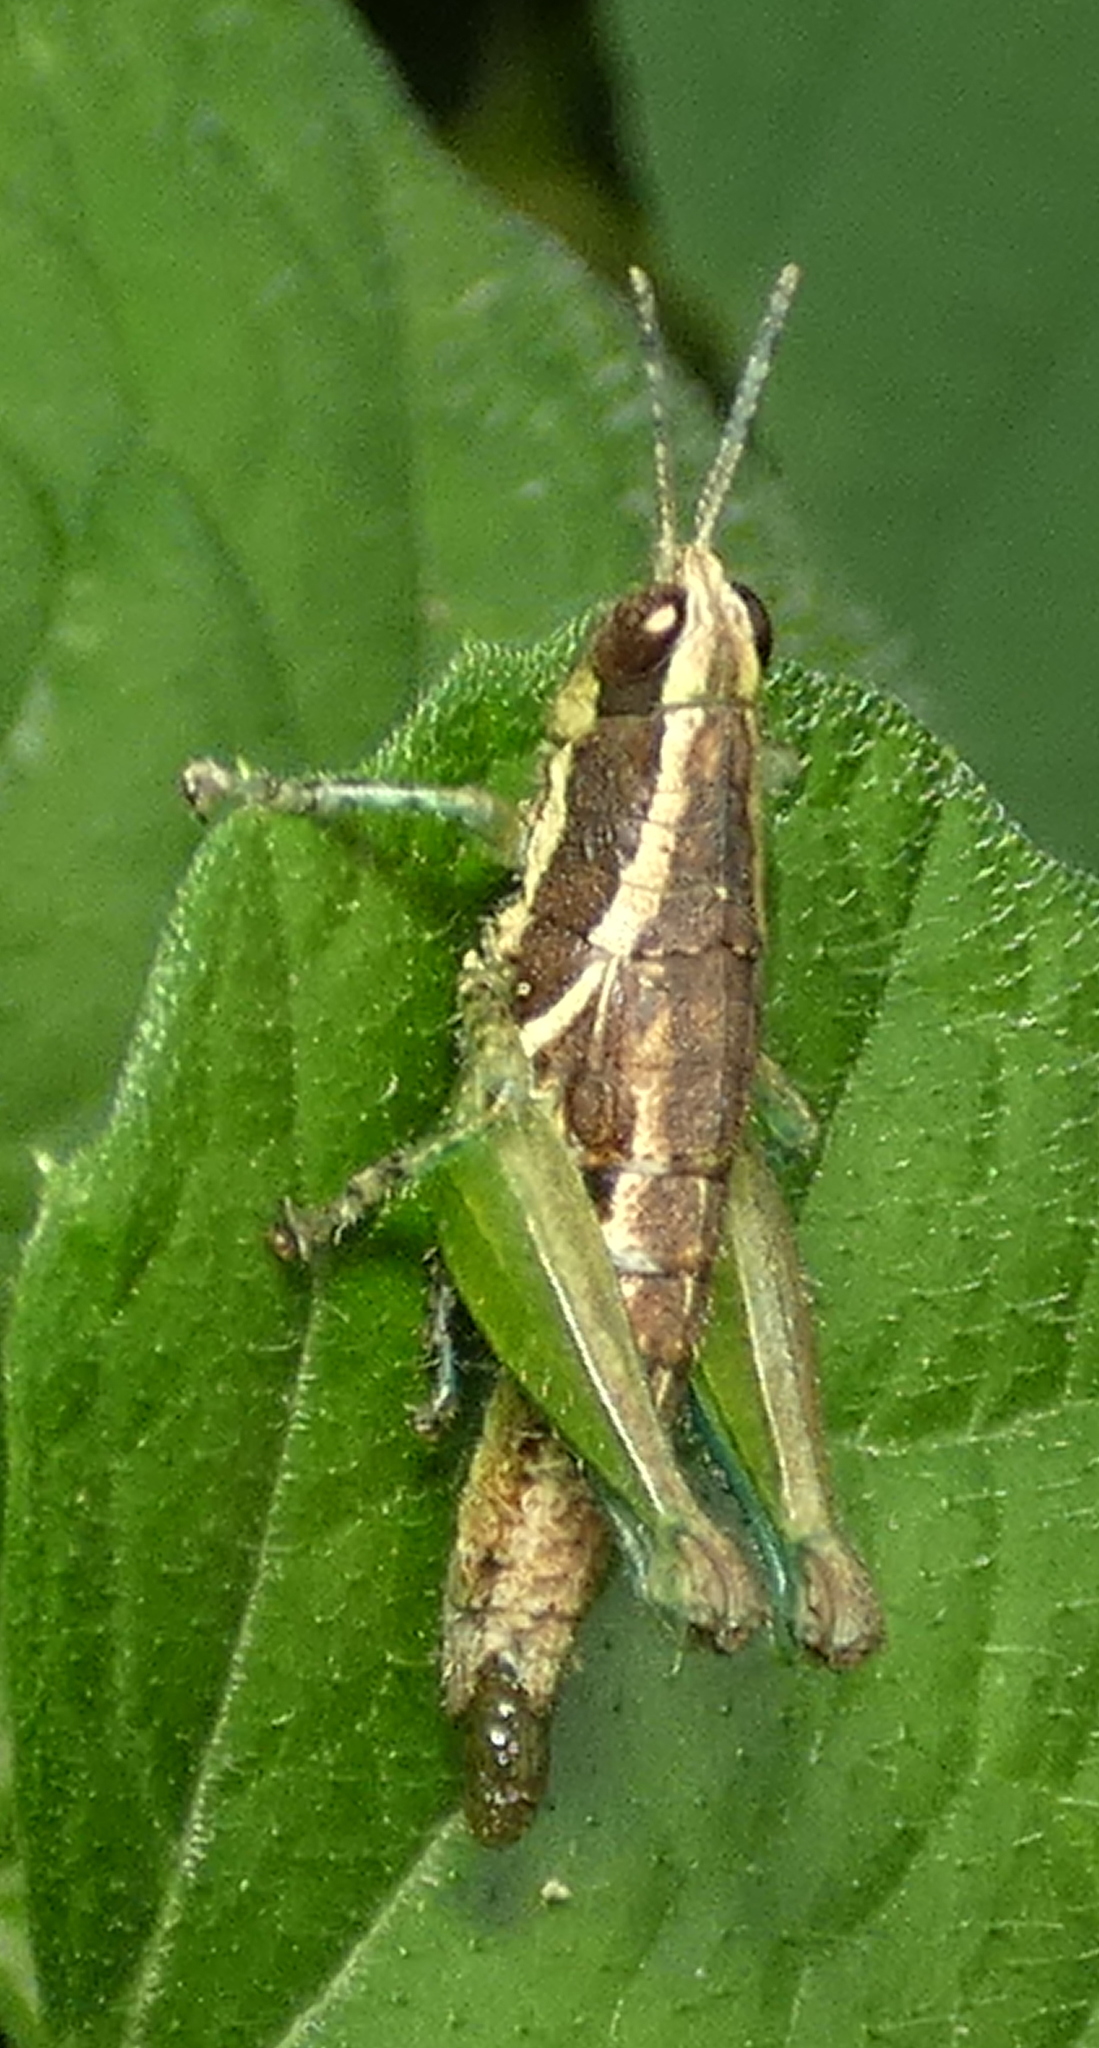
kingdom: Animalia
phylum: Arthropoda
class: Insecta
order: Orthoptera
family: Acrididae
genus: Roppacris
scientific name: Roppacris longicerca
